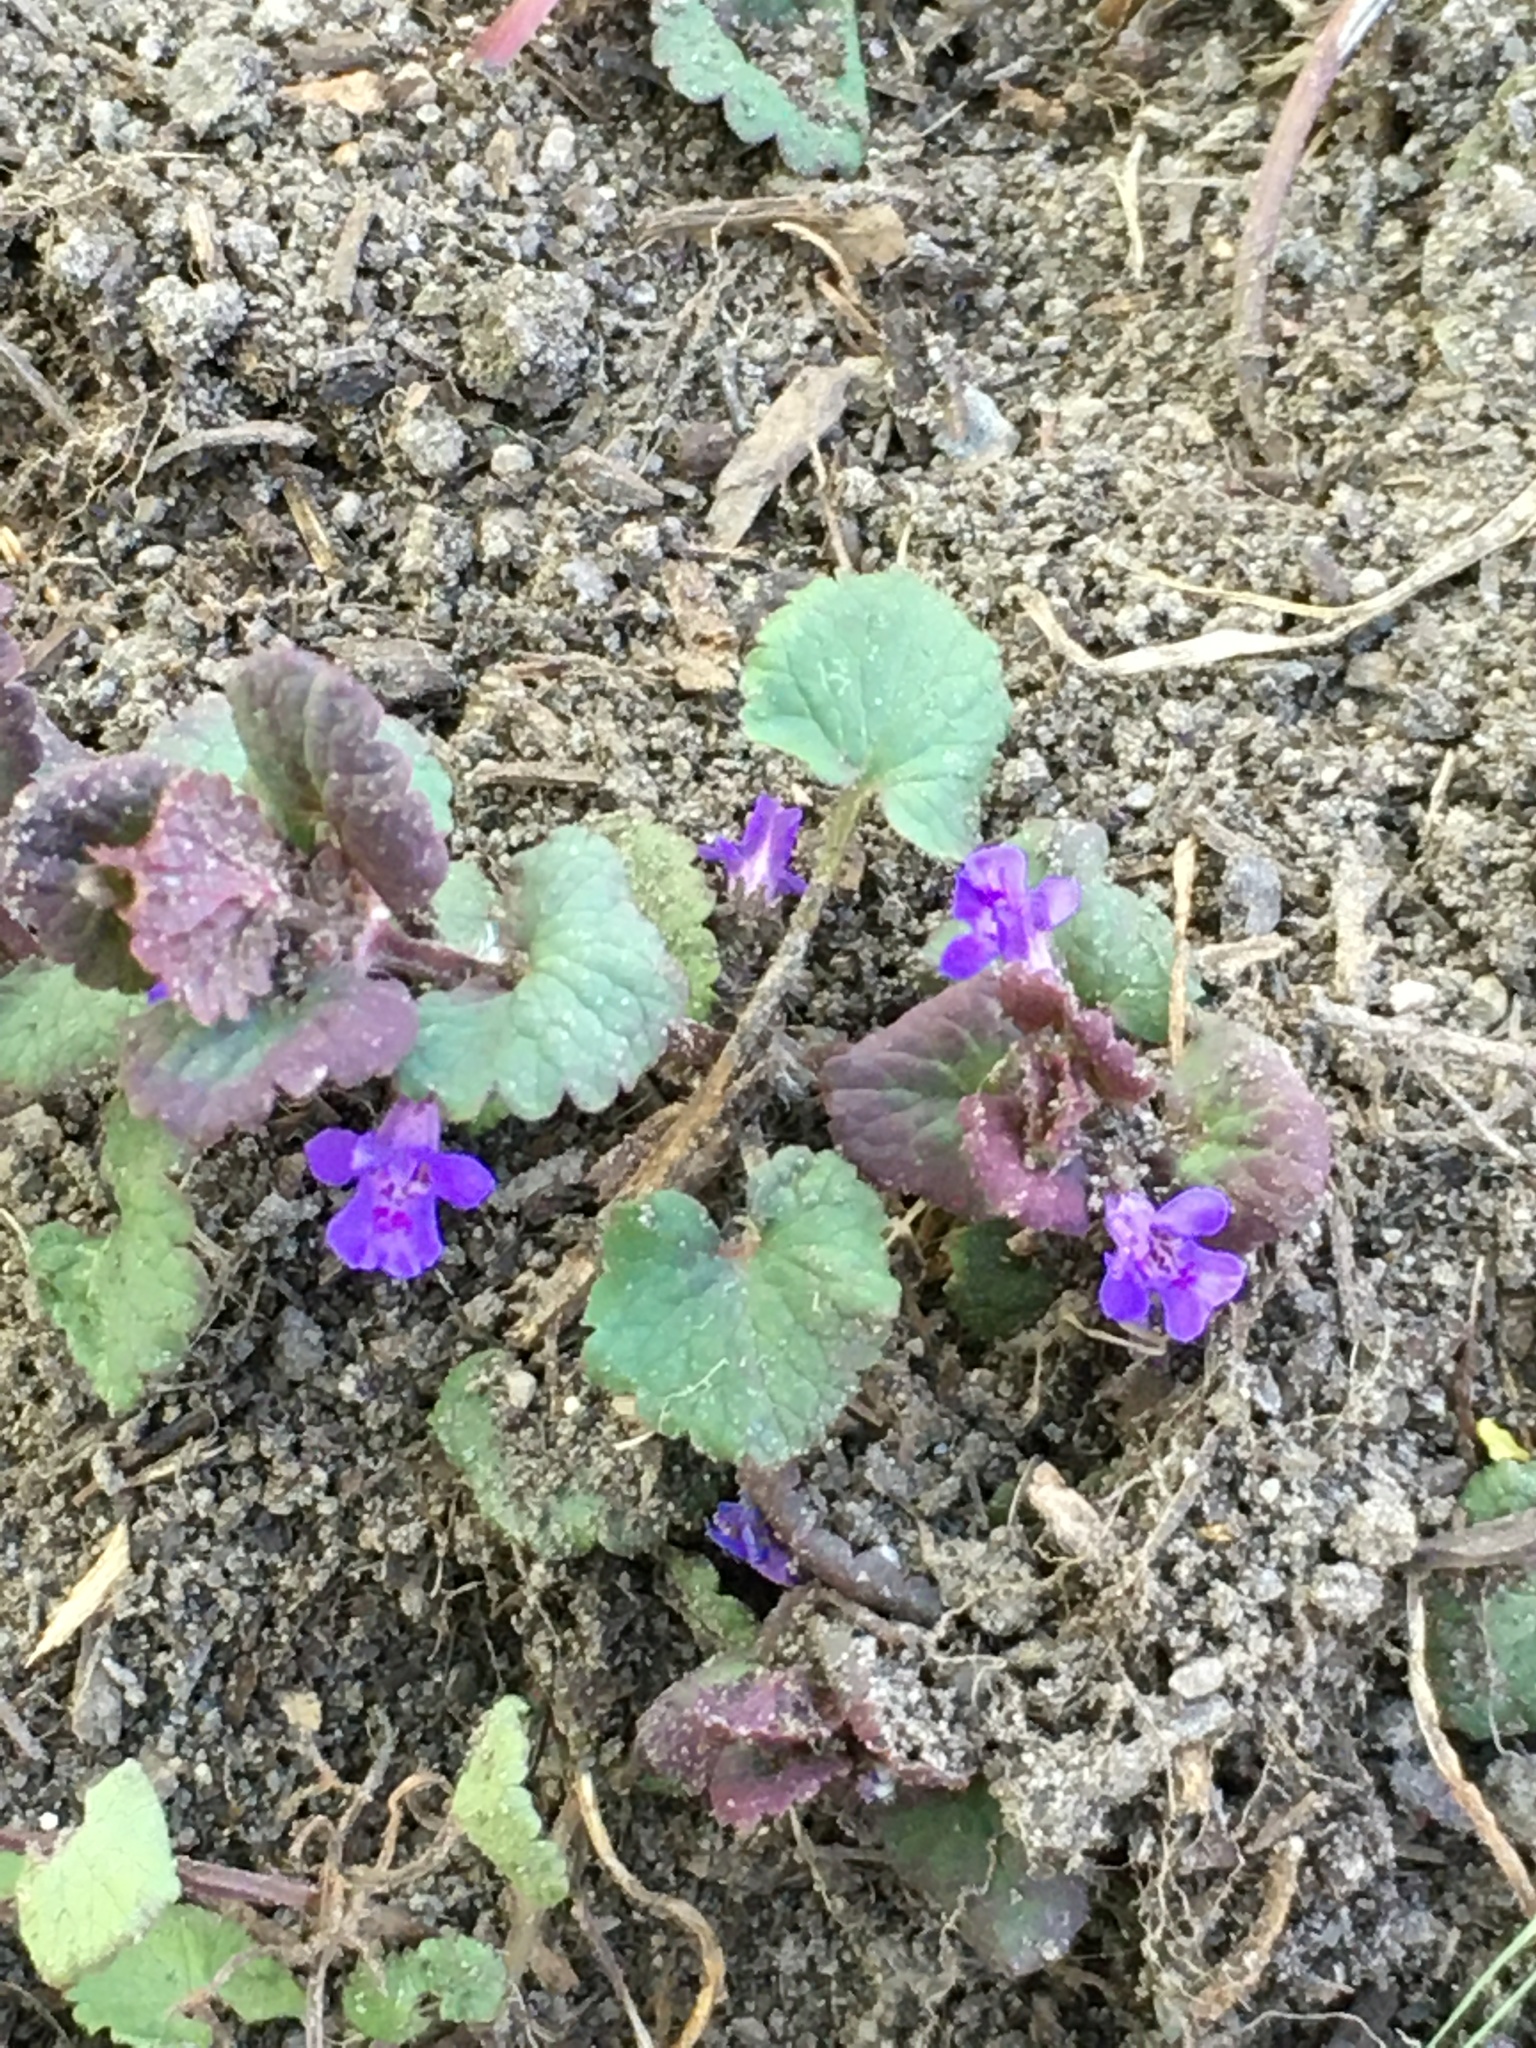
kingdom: Plantae
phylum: Tracheophyta
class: Magnoliopsida
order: Lamiales
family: Lamiaceae
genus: Glechoma
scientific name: Glechoma hederacea
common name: Ground ivy
